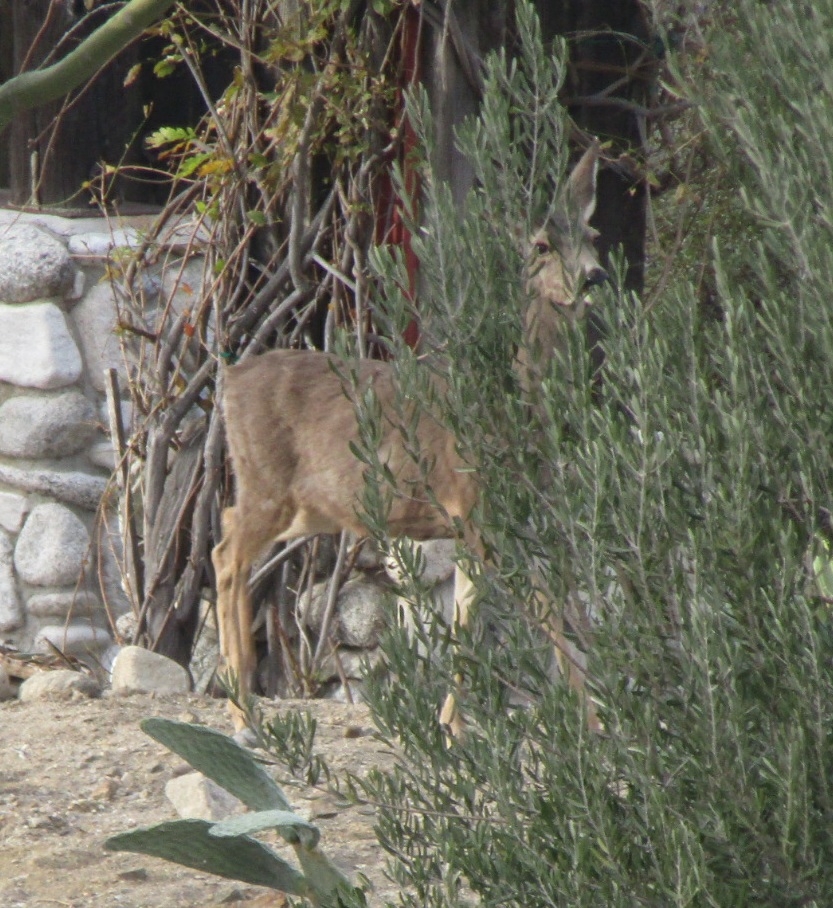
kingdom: Animalia
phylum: Chordata
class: Mammalia
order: Artiodactyla
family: Cervidae
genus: Odocoileus
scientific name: Odocoileus hemionus
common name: Mule deer
